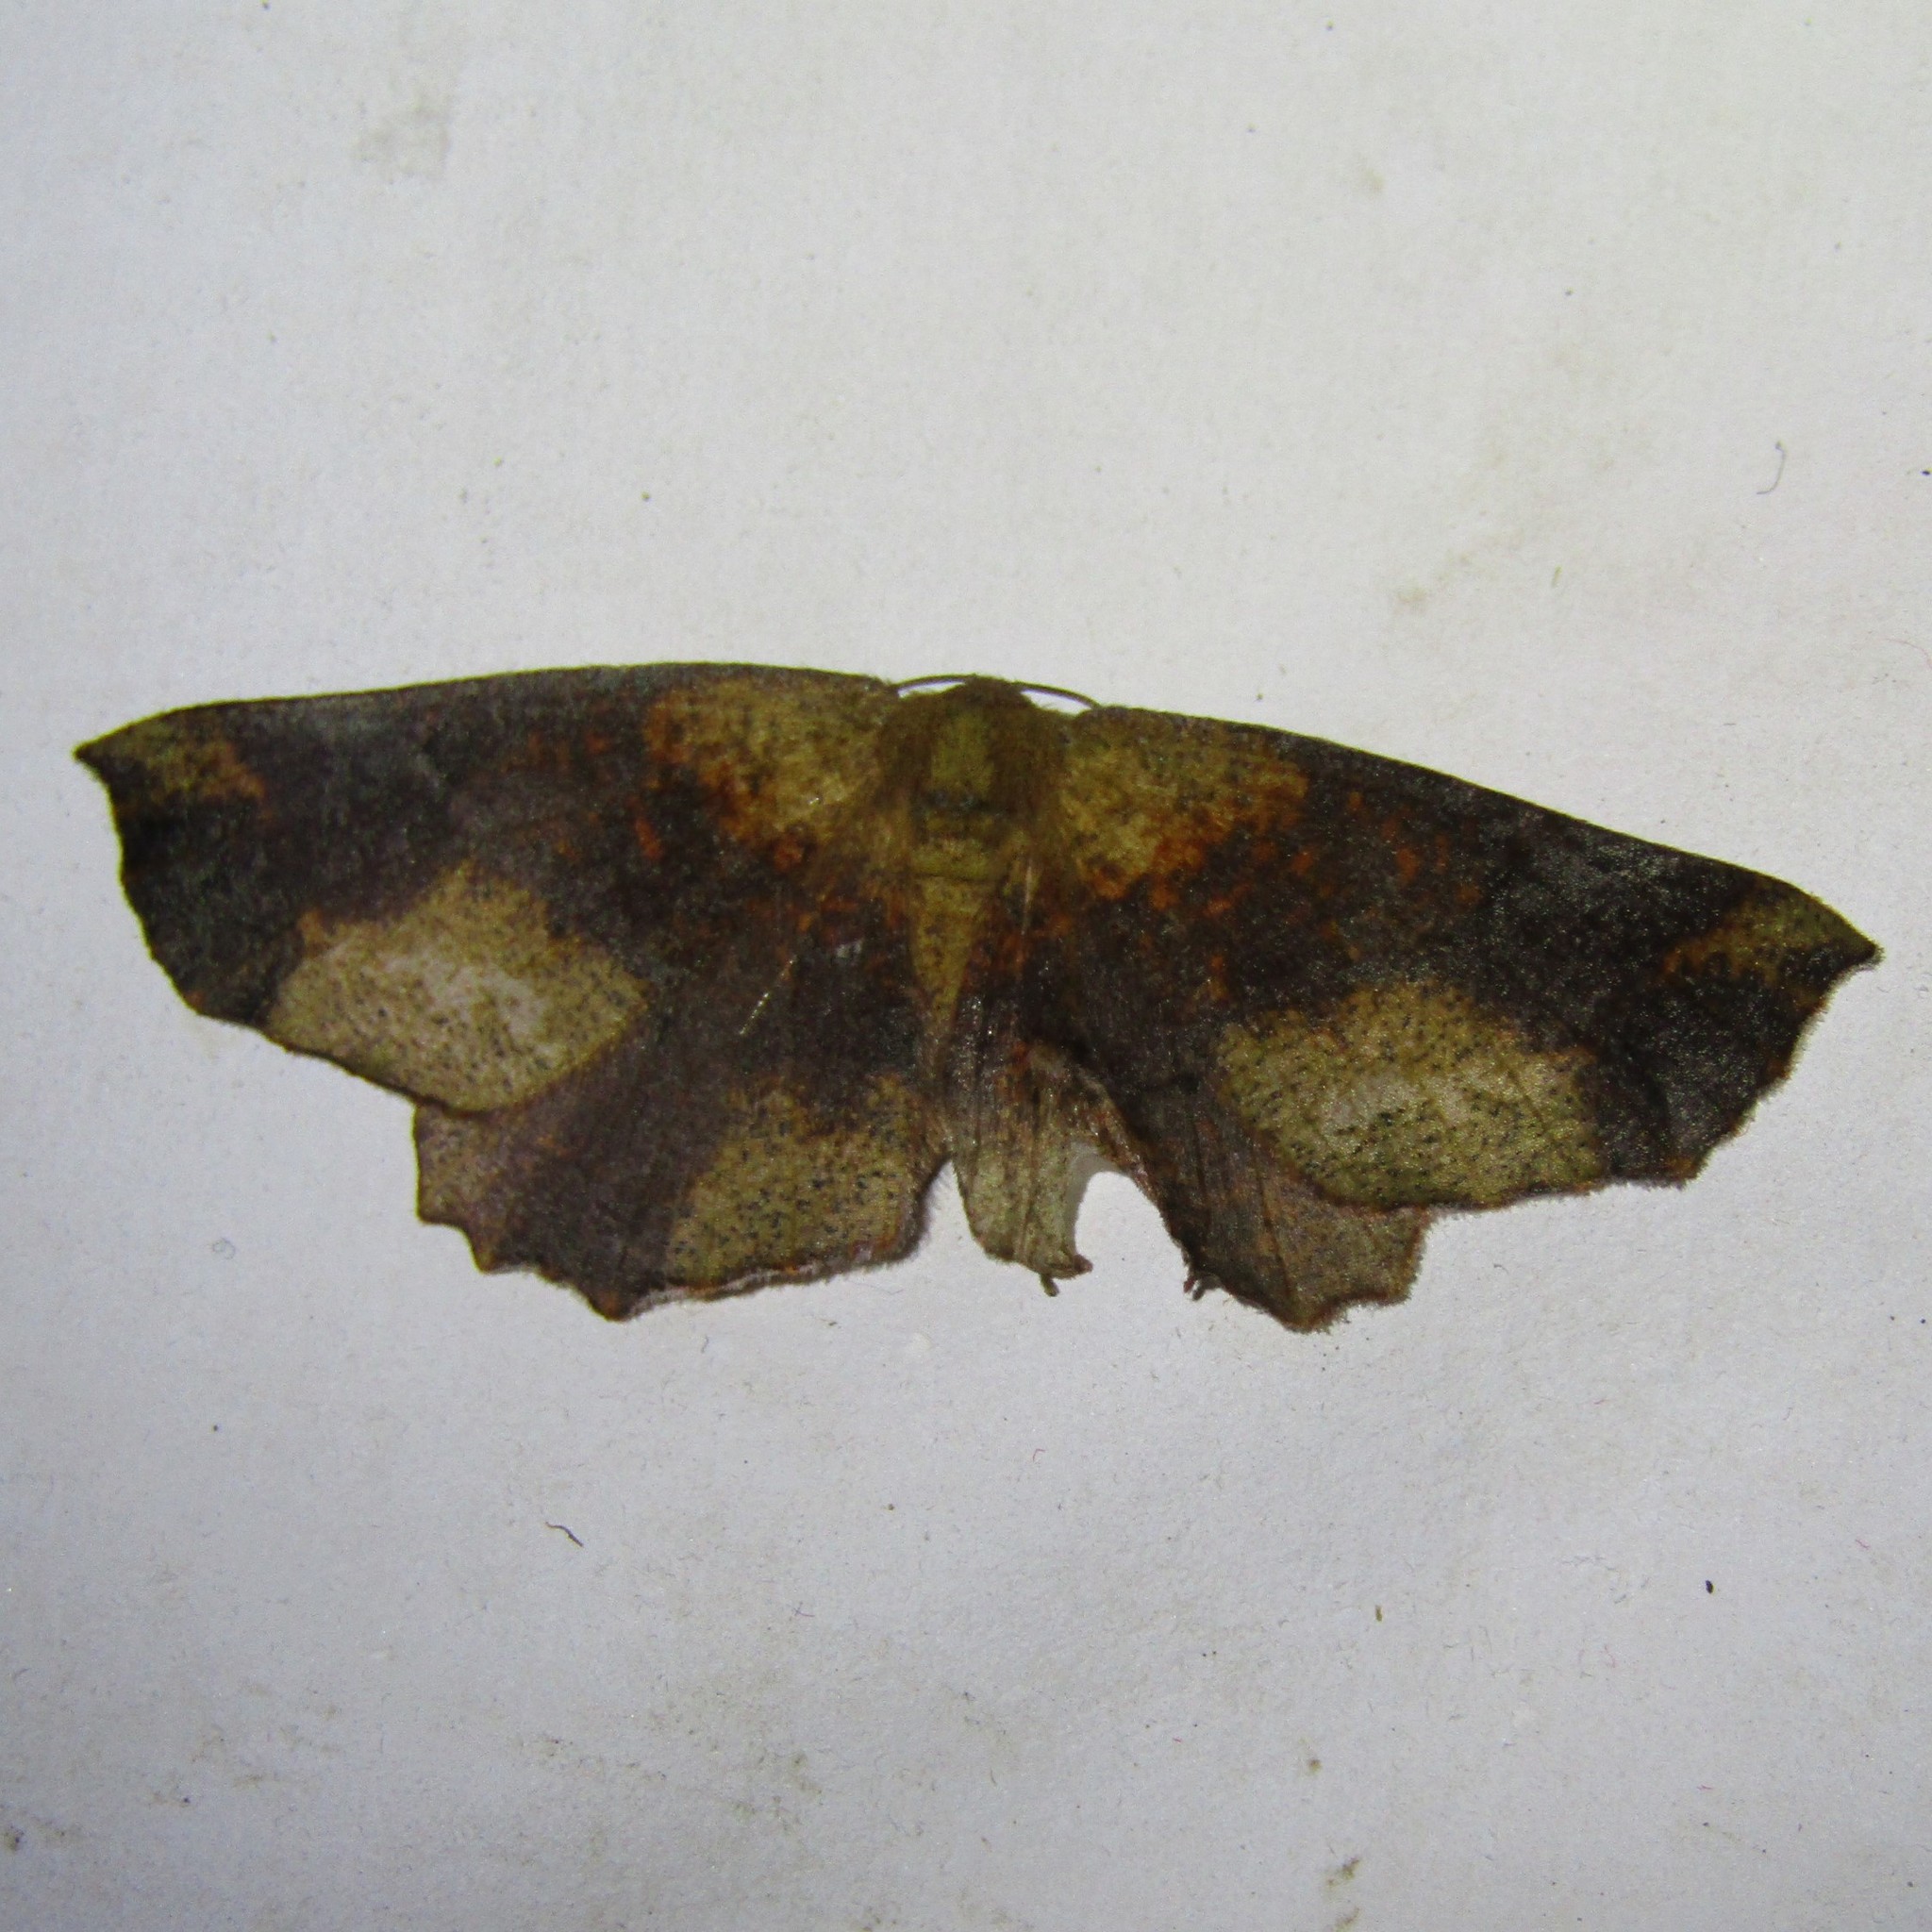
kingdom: Animalia
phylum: Arthropoda
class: Insecta
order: Lepidoptera
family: Geometridae
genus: Xyridacma
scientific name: Xyridacma ustaria
